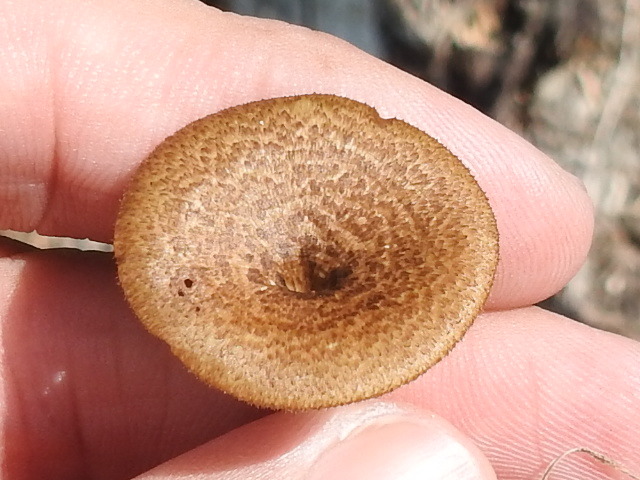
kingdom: Fungi
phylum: Basidiomycota
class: Agaricomycetes
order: Polyporales
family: Polyporaceae
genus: Lentinus
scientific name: Lentinus arcularius
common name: Spring polypore
